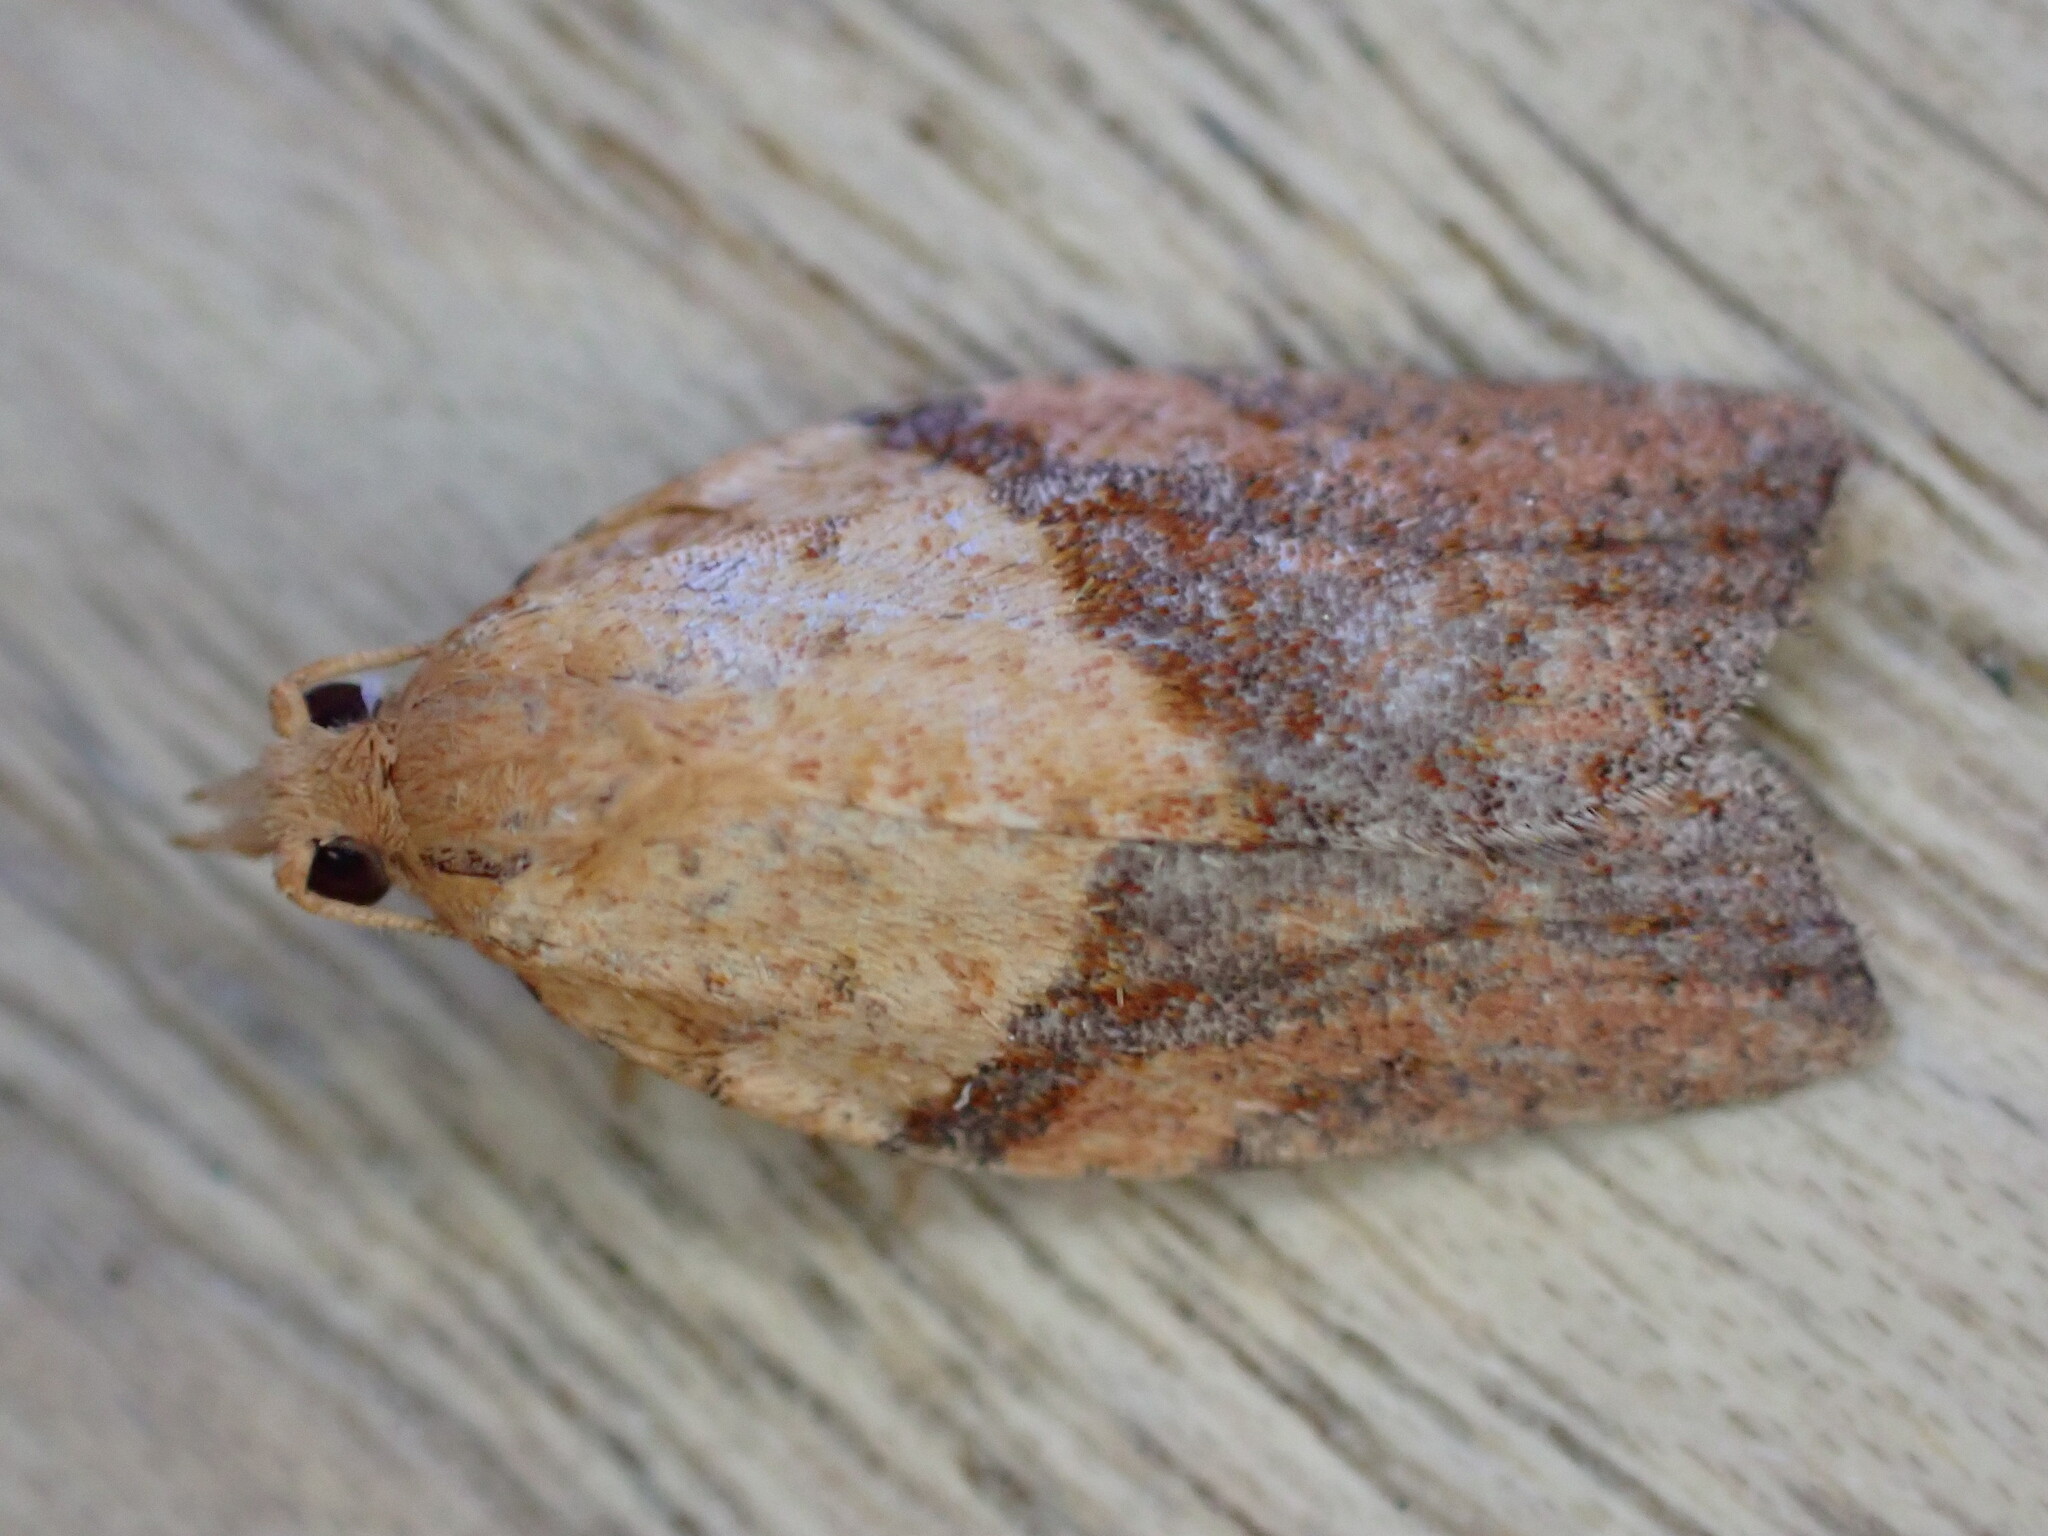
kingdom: Animalia
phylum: Arthropoda
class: Insecta
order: Lepidoptera
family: Tortricidae
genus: Epiphyas
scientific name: Epiphyas postvittana
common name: Light brown apple moth
